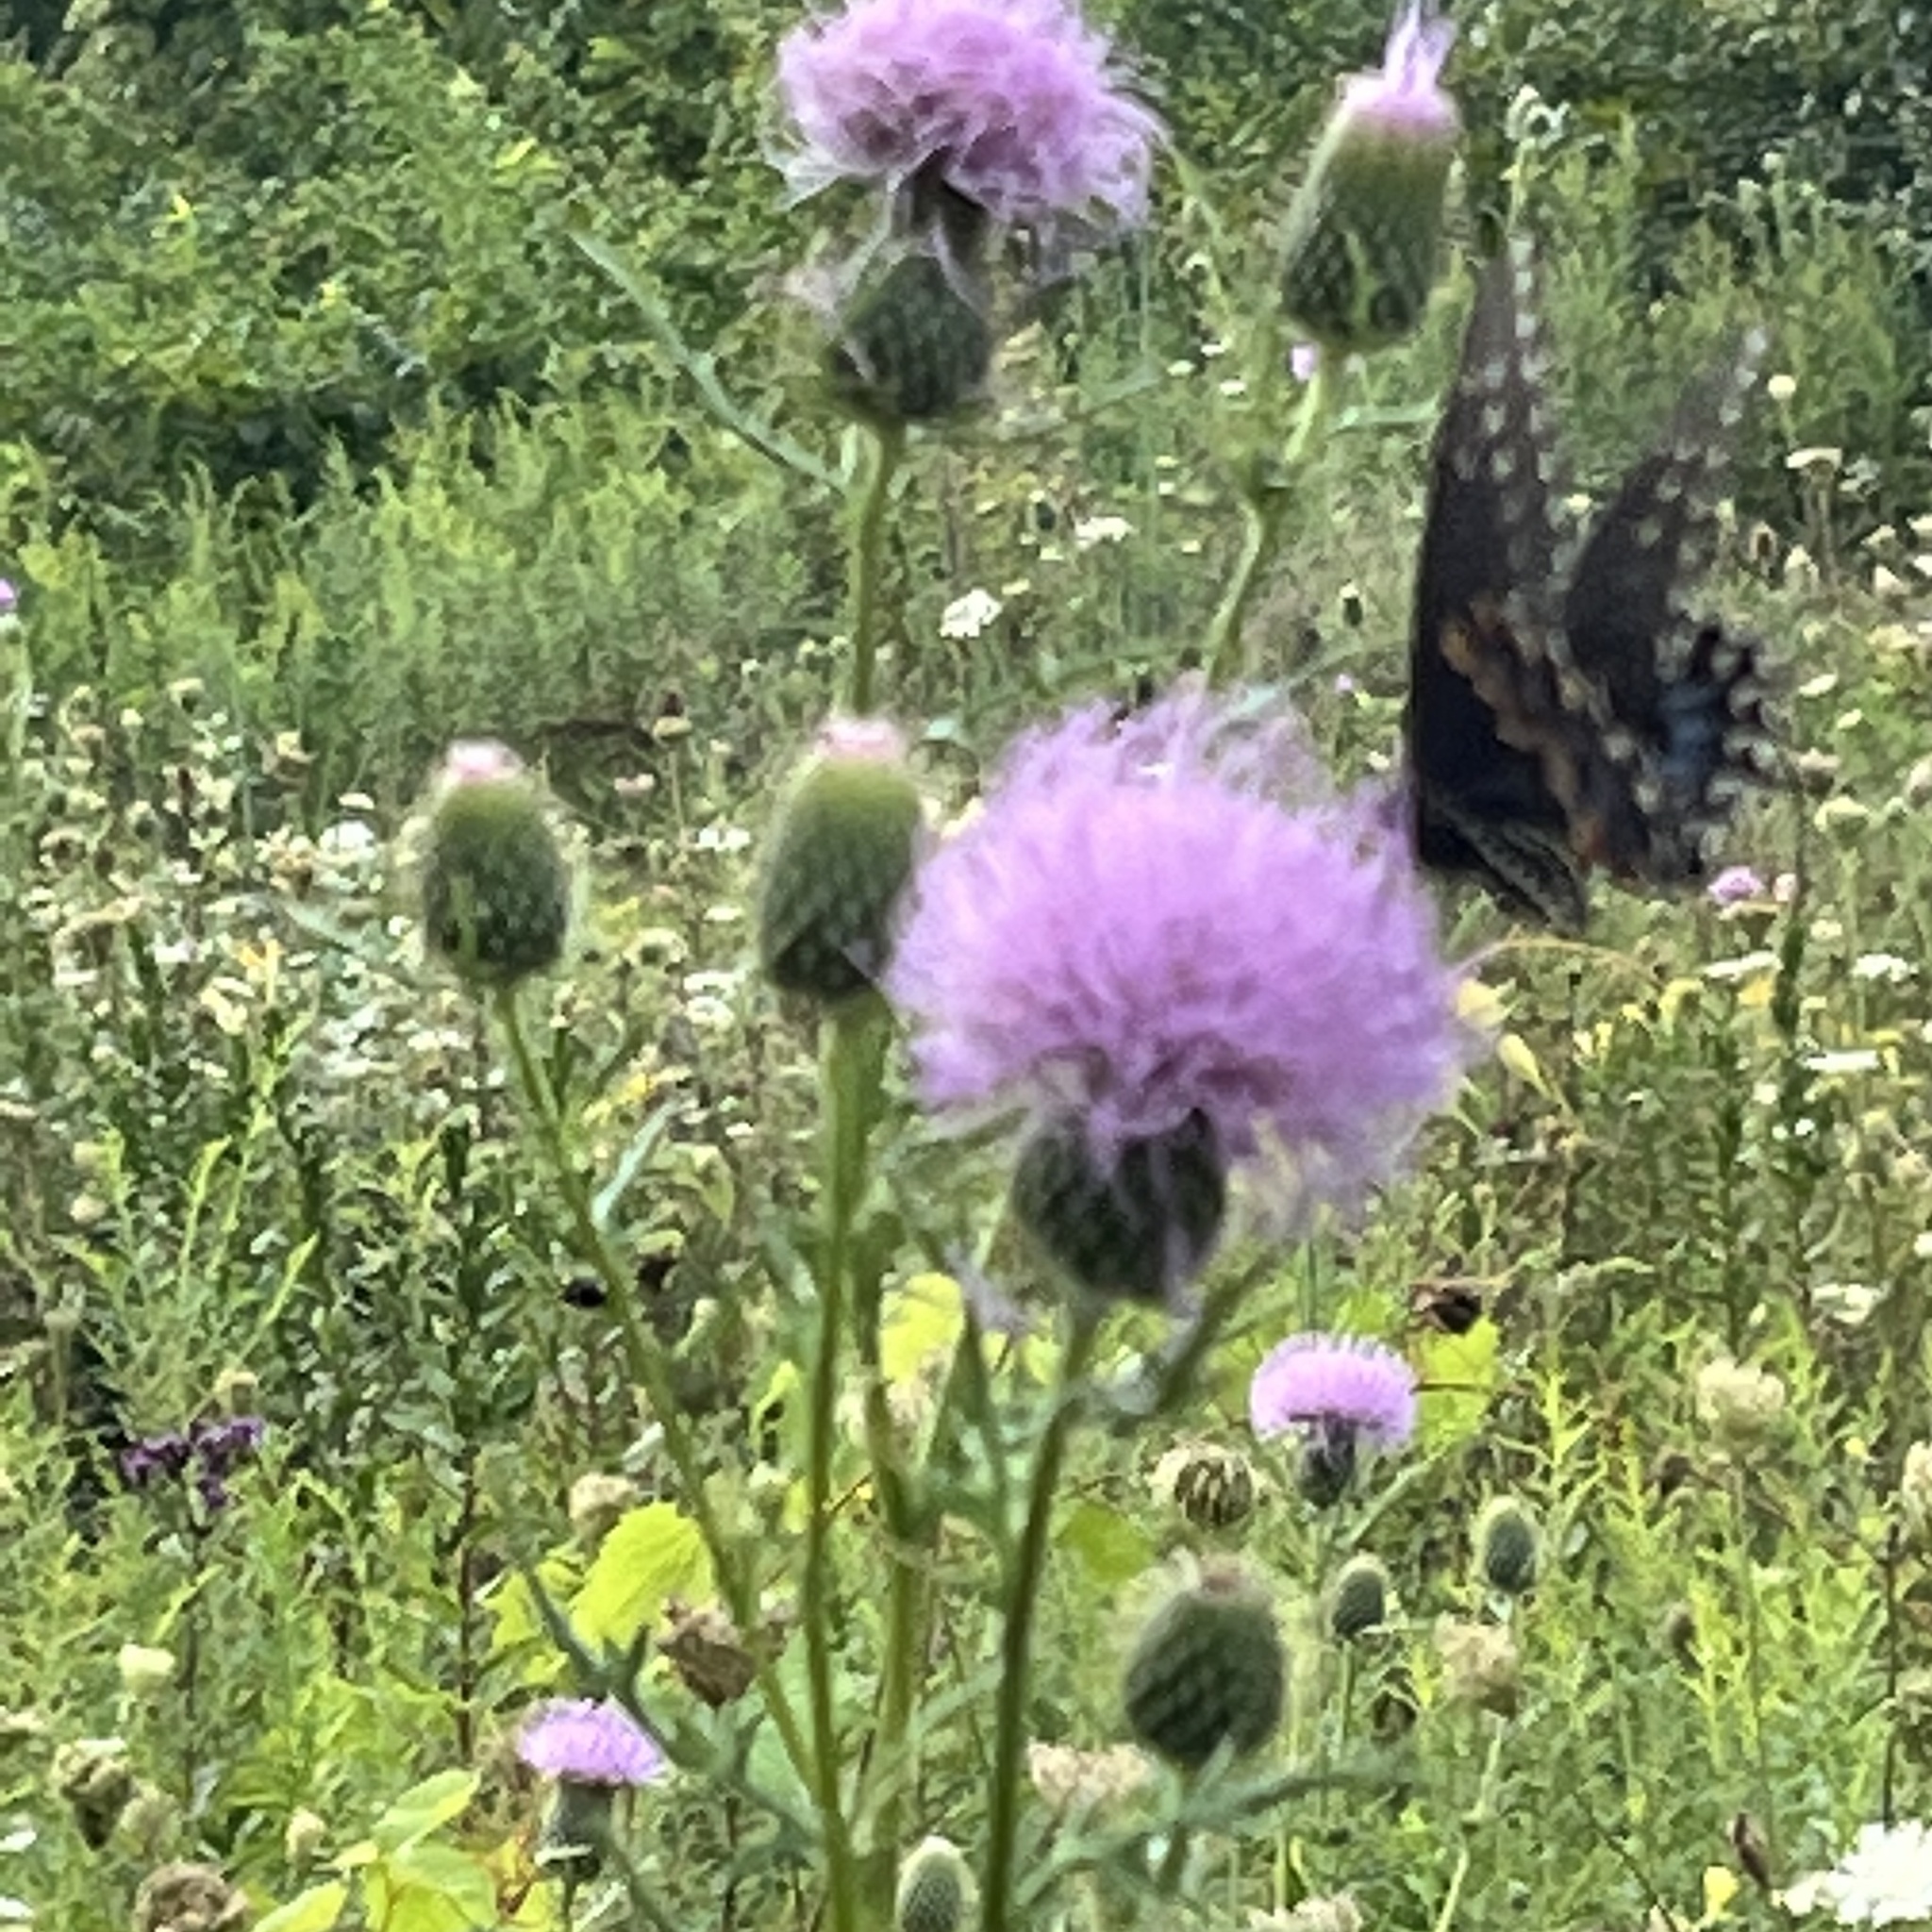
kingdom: Animalia
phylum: Arthropoda
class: Insecta
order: Lepidoptera
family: Papilionidae
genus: Papilio
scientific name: Papilio polyxenes
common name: Black swallowtail
